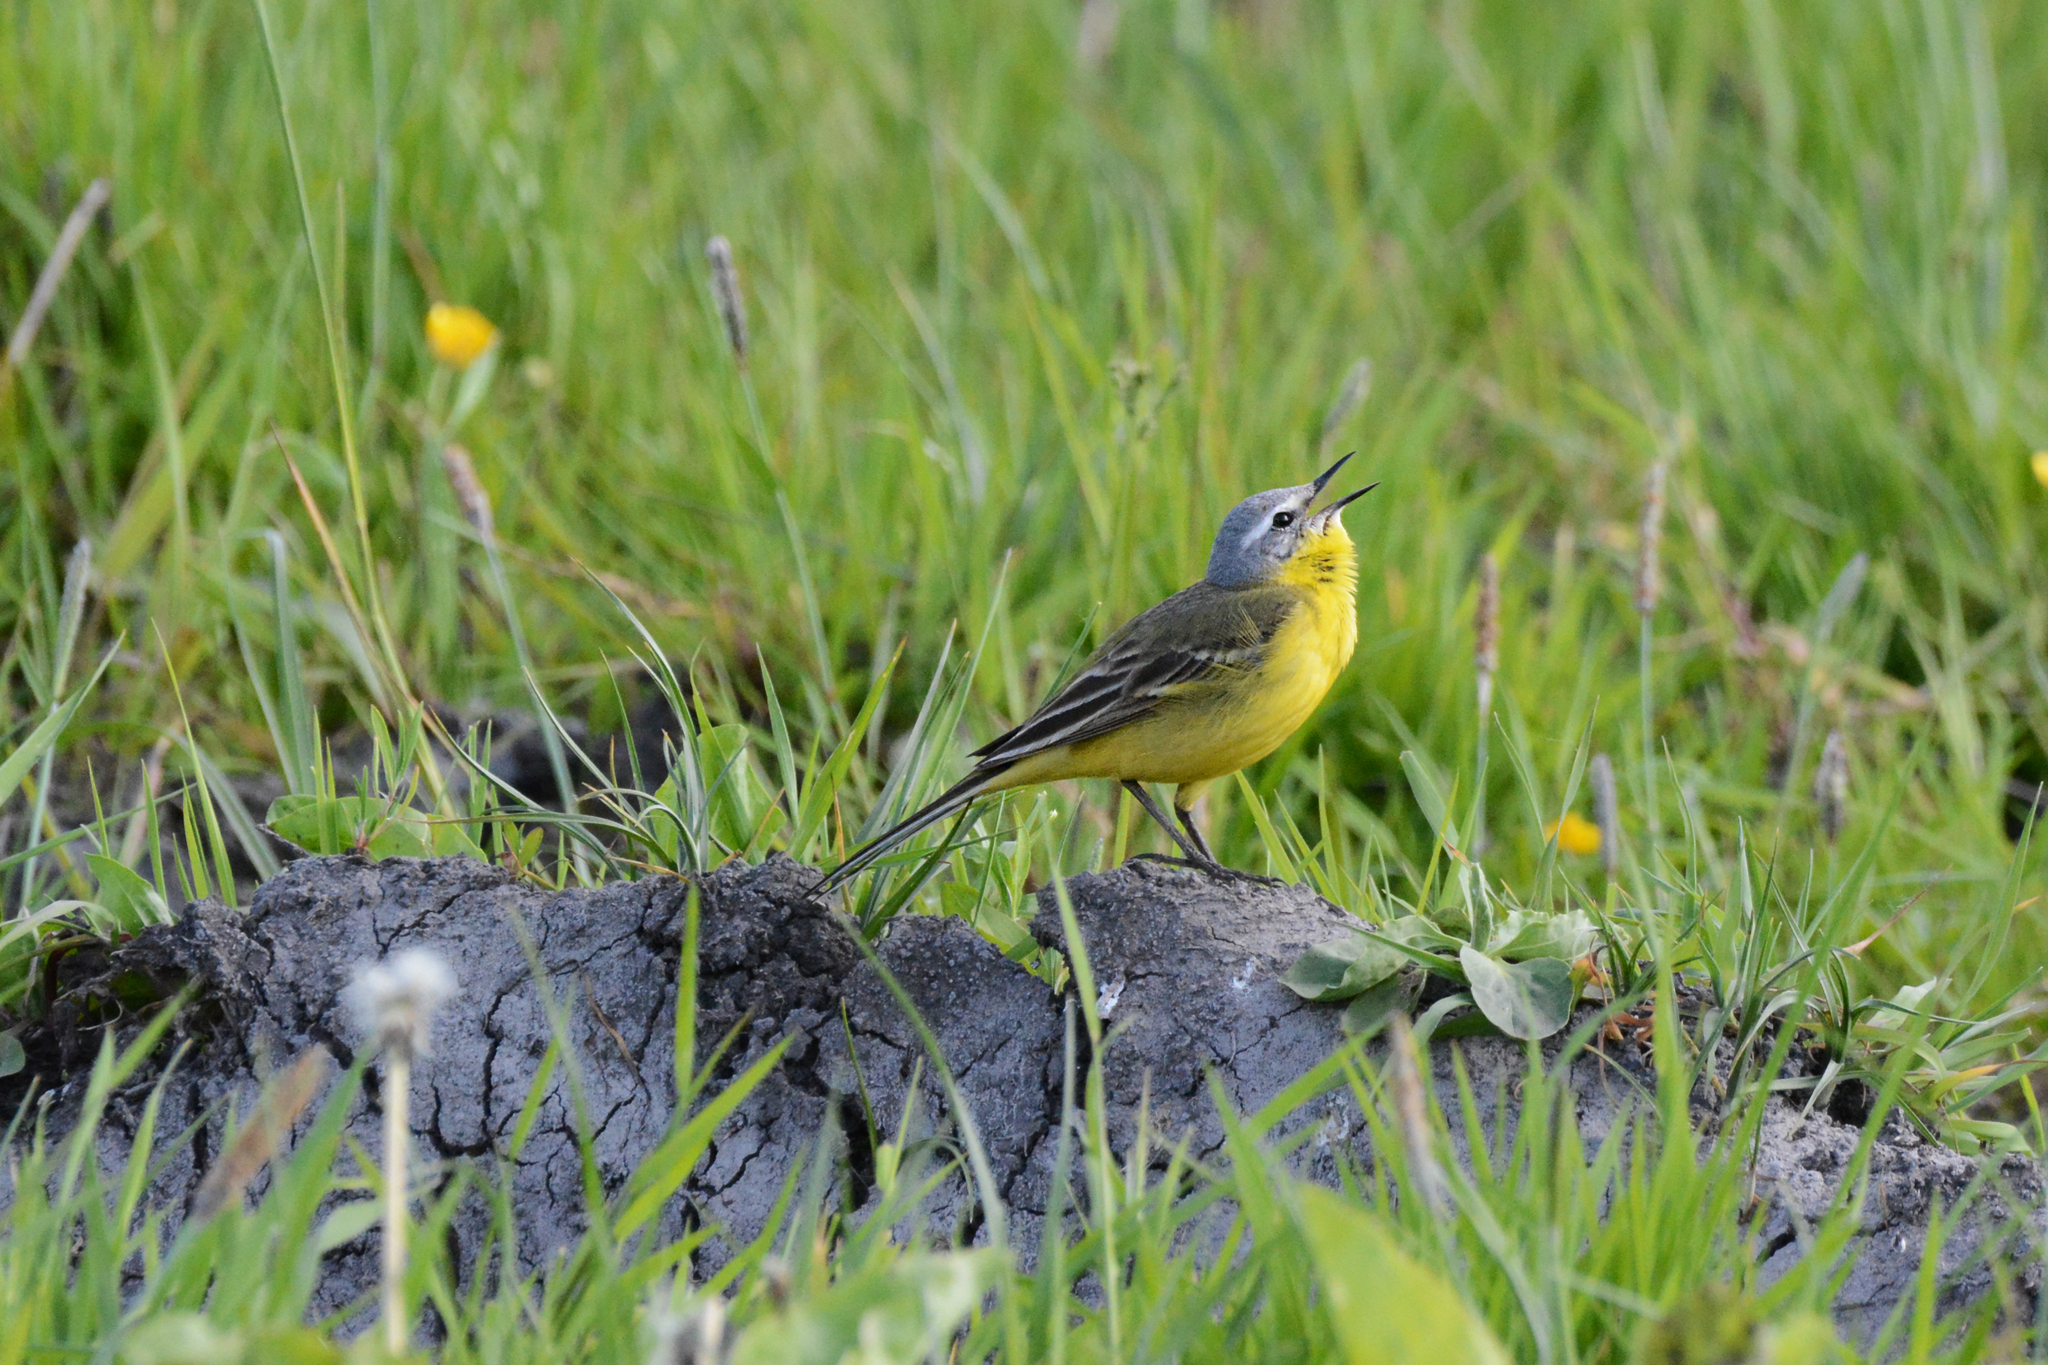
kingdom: Animalia
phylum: Chordata
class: Aves
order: Passeriformes
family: Motacillidae
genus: Motacilla
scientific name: Motacilla flava
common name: Western yellow wagtail
